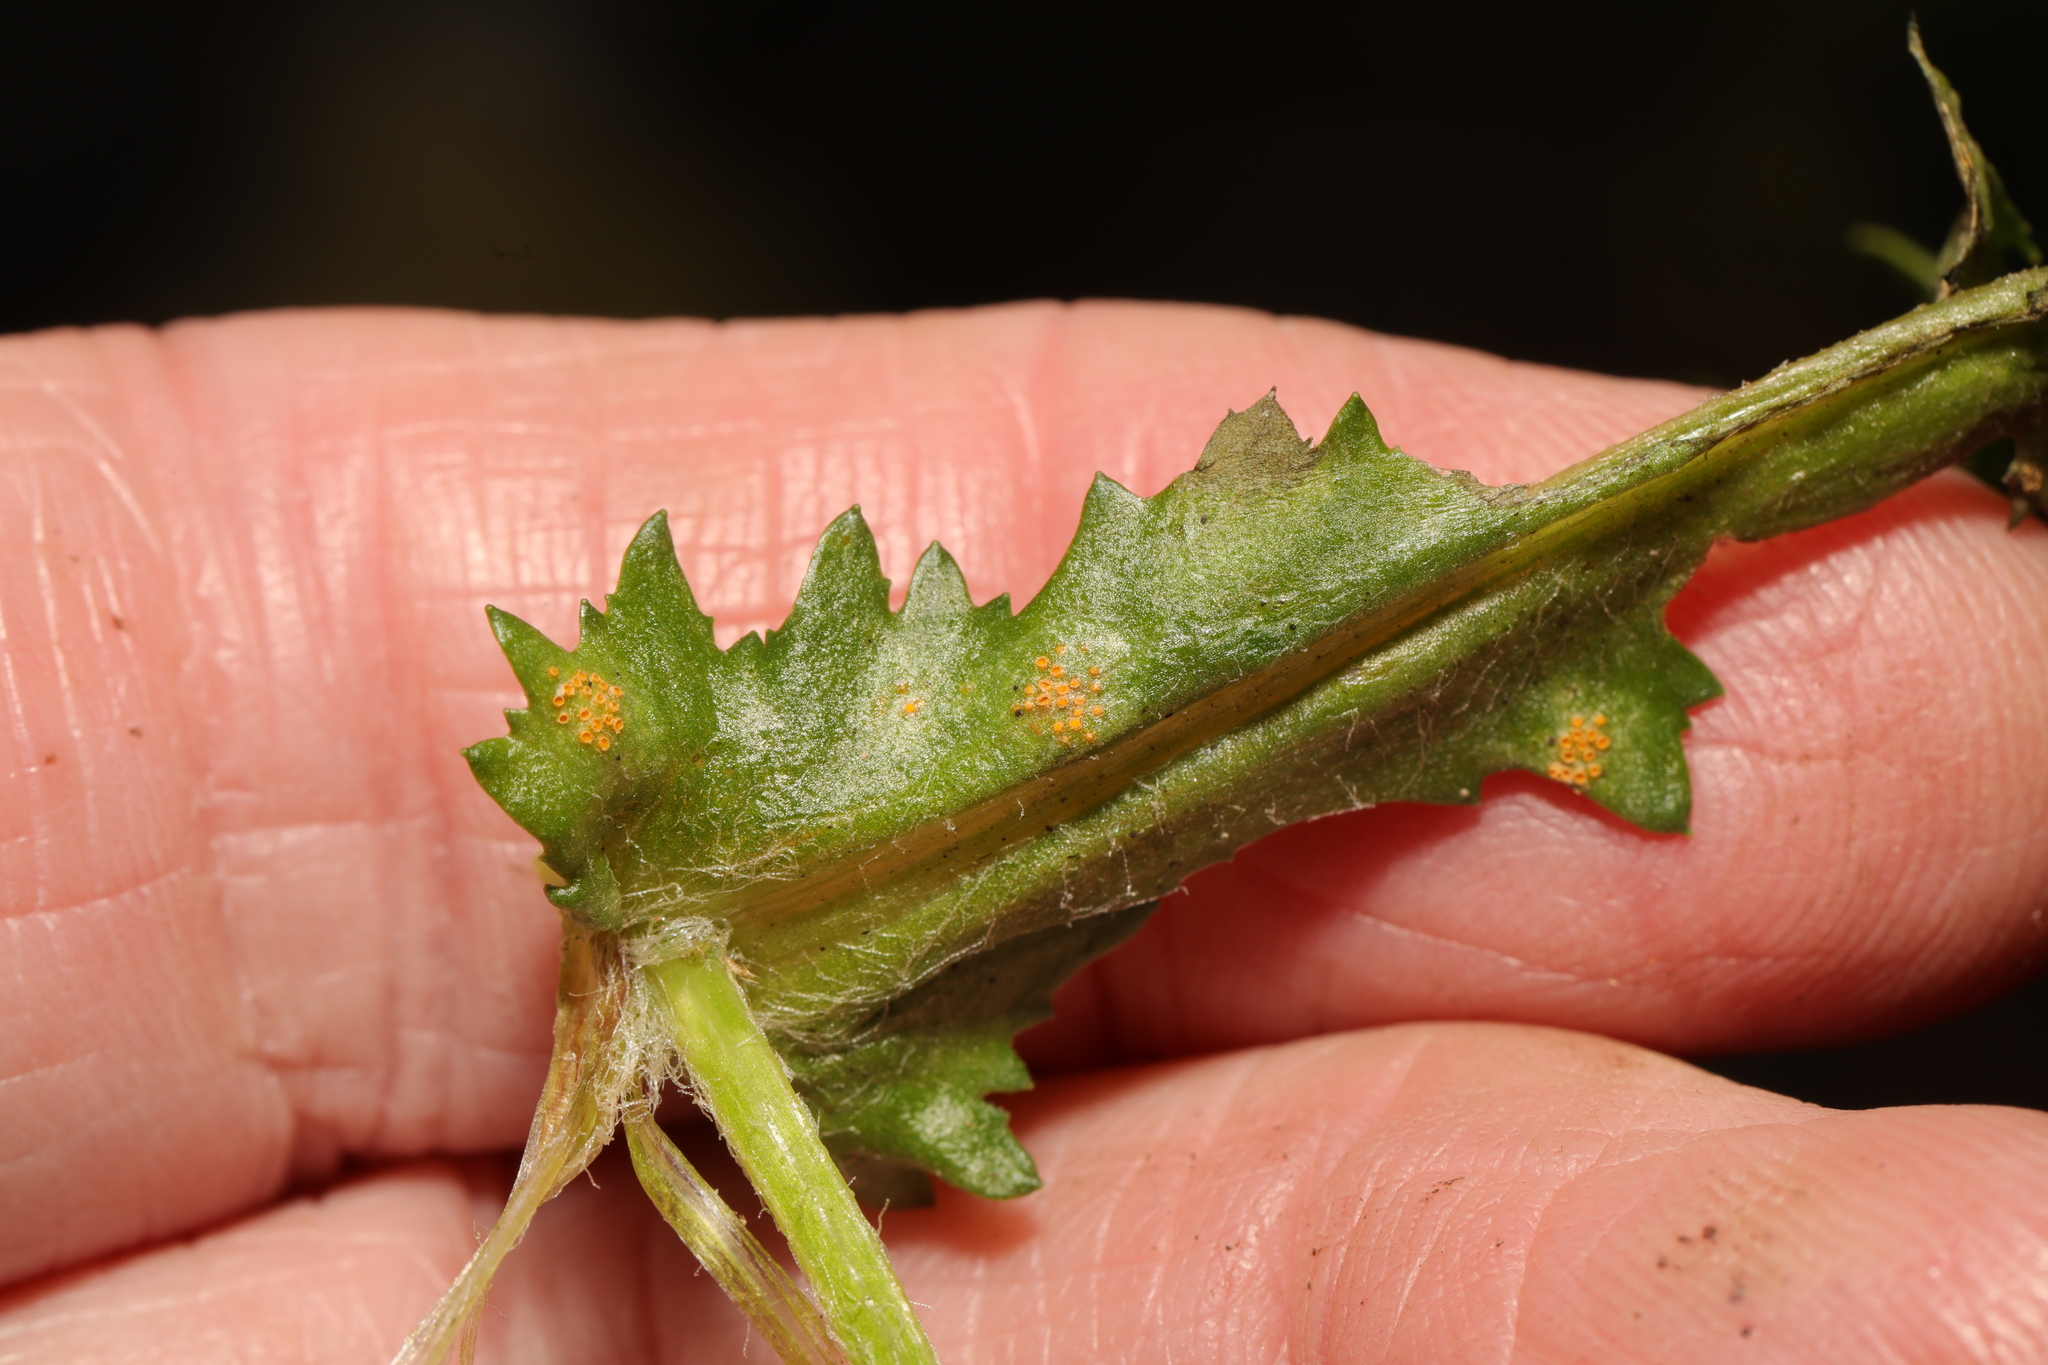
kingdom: Fungi
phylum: Basidiomycota
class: Pucciniomycetes
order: Pucciniales
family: Pucciniaceae
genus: Puccinia
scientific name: Puccinia lagenophorae
